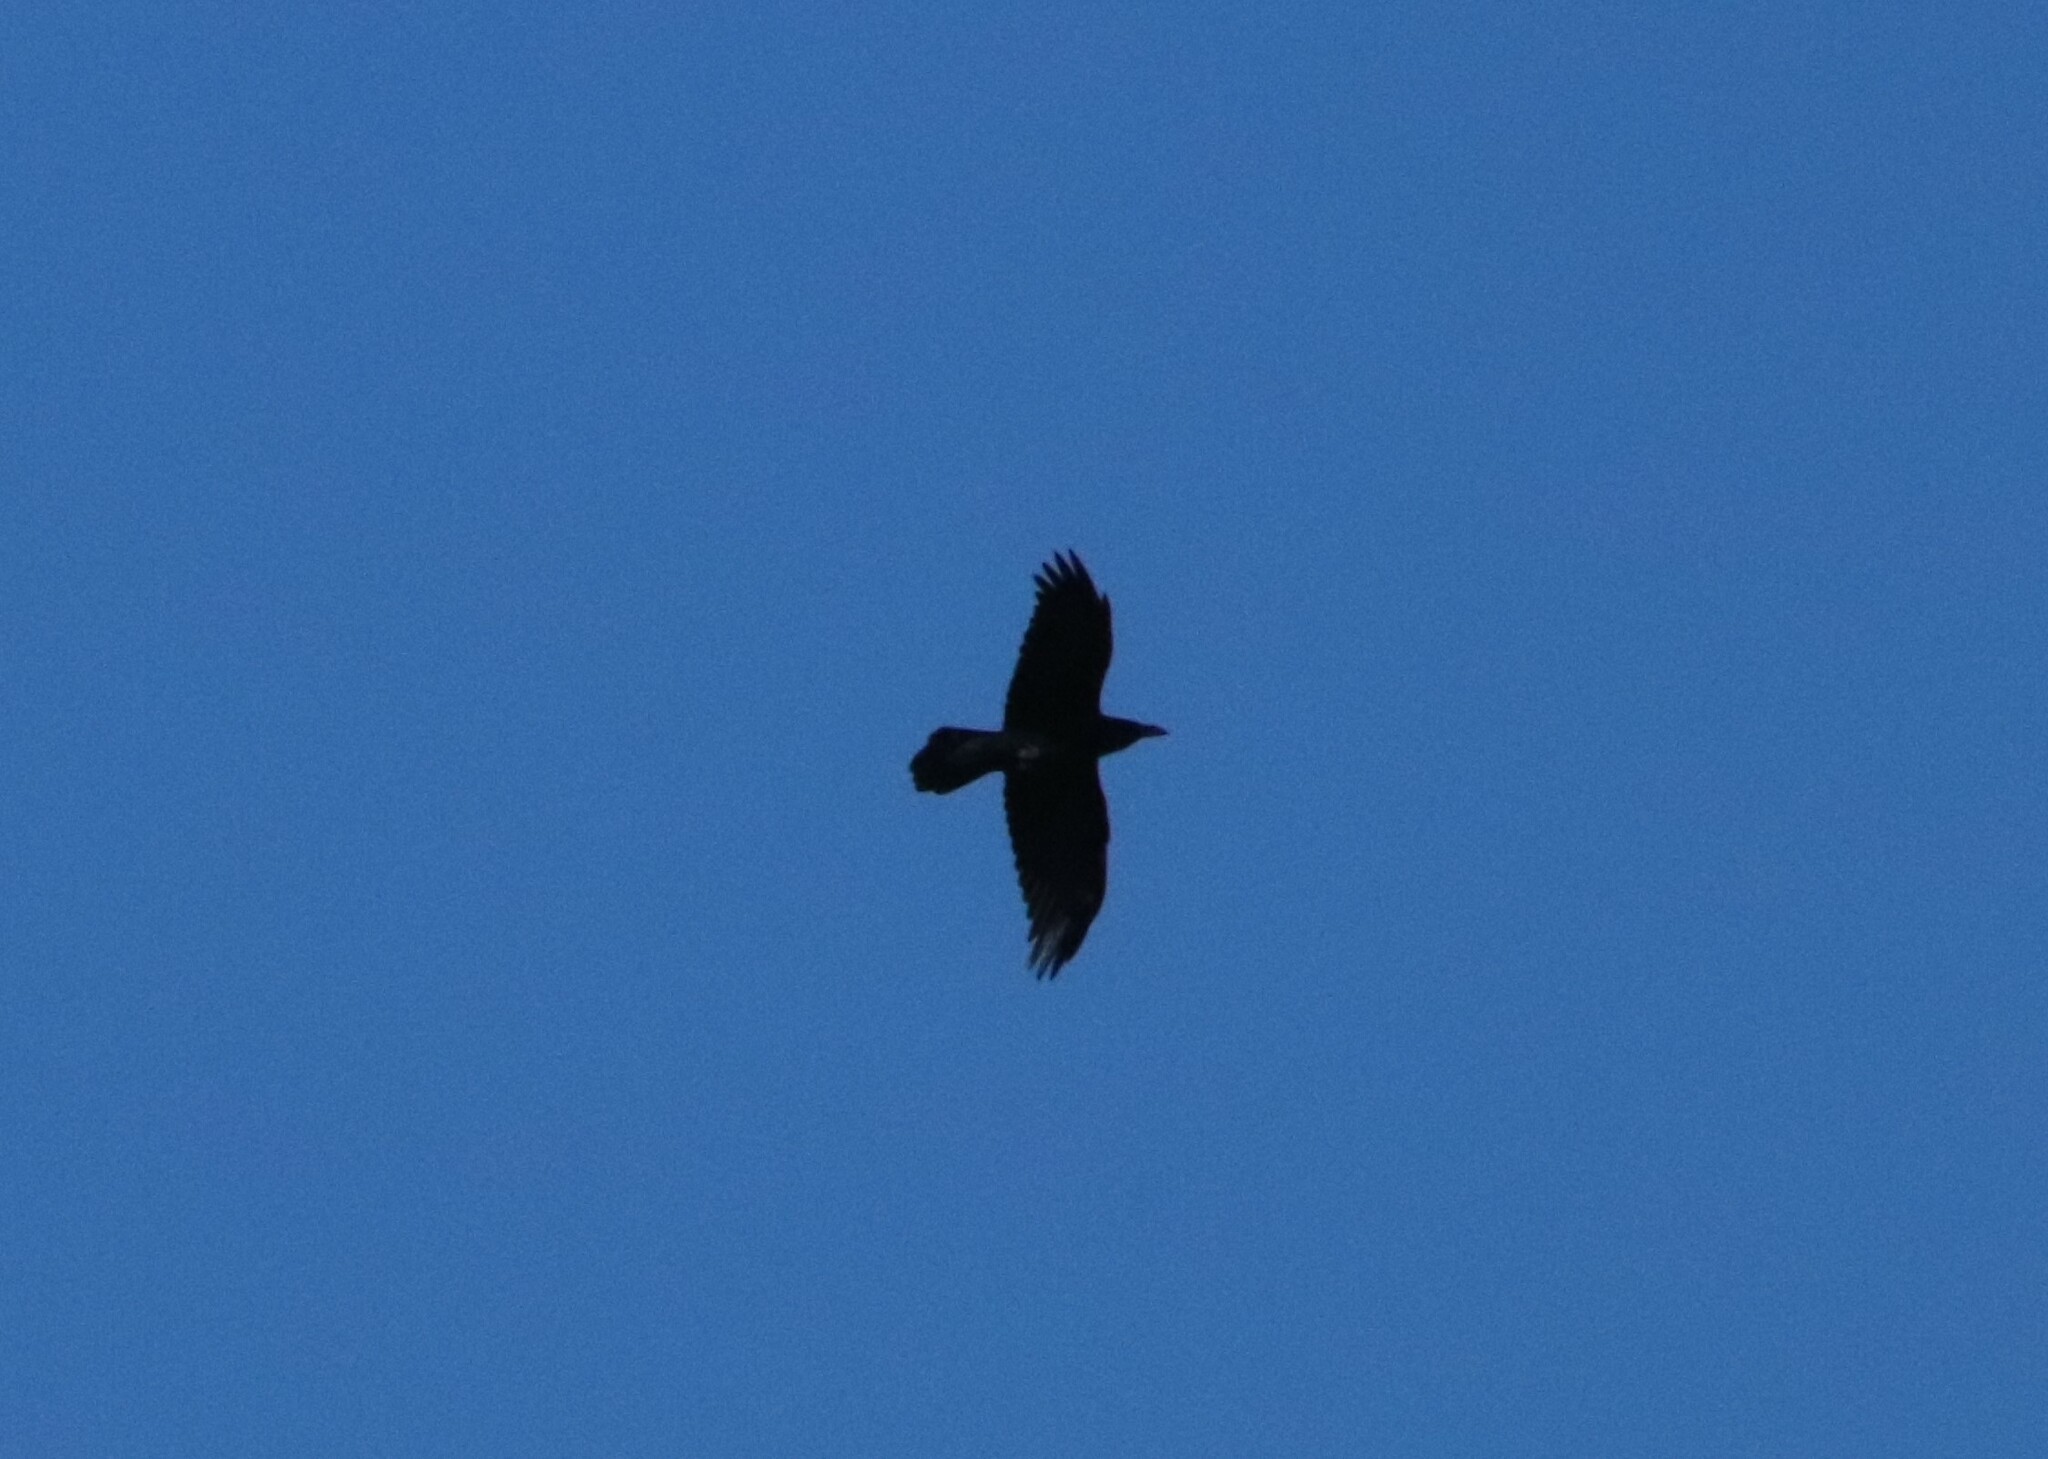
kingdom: Animalia
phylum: Chordata
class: Aves
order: Passeriformes
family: Corvidae
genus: Corvus
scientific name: Corvus corax
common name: Common raven
